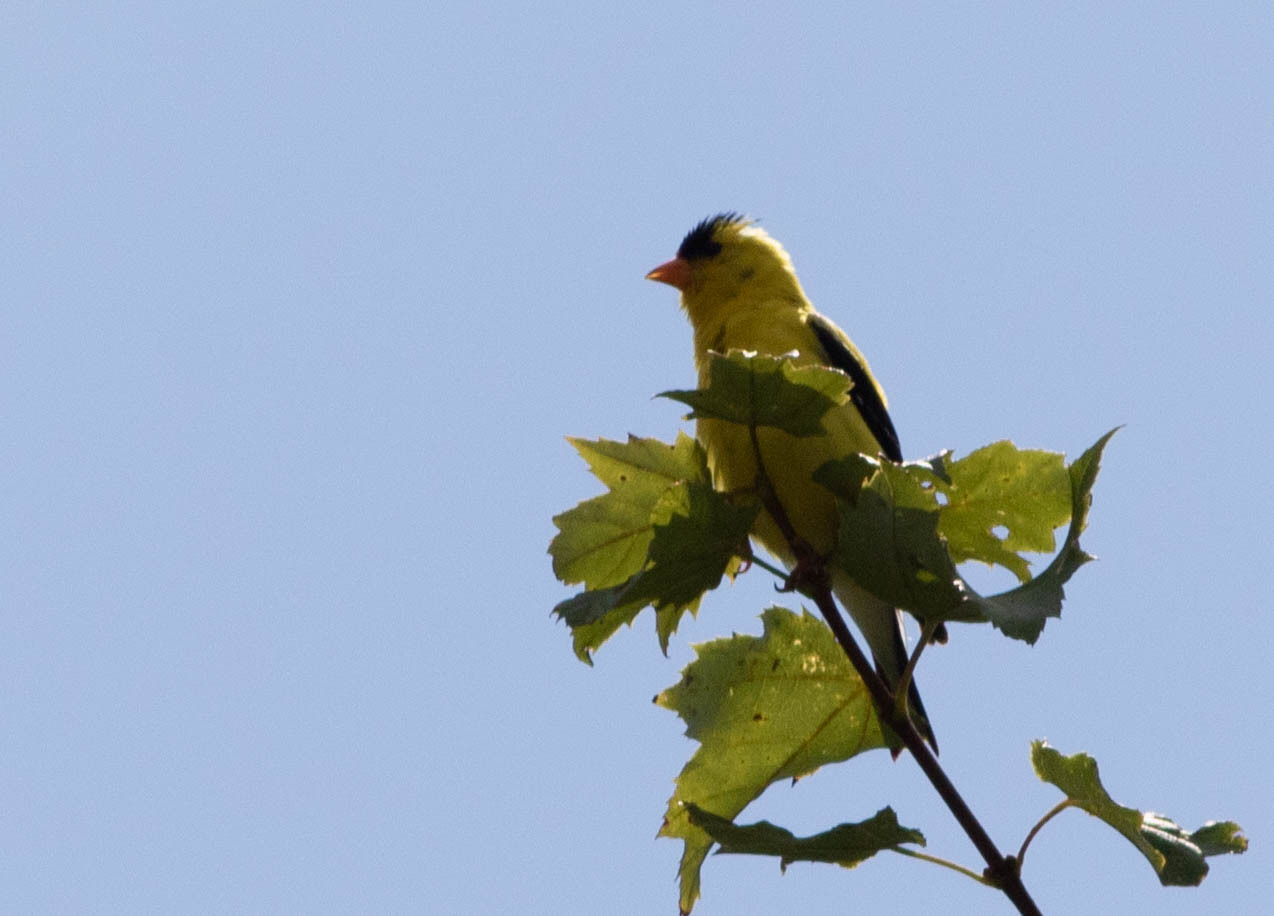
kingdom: Animalia
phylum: Chordata
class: Aves
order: Passeriformes
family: Fringillidae
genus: Spinus
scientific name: Spinus tristis
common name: American goldfinch
